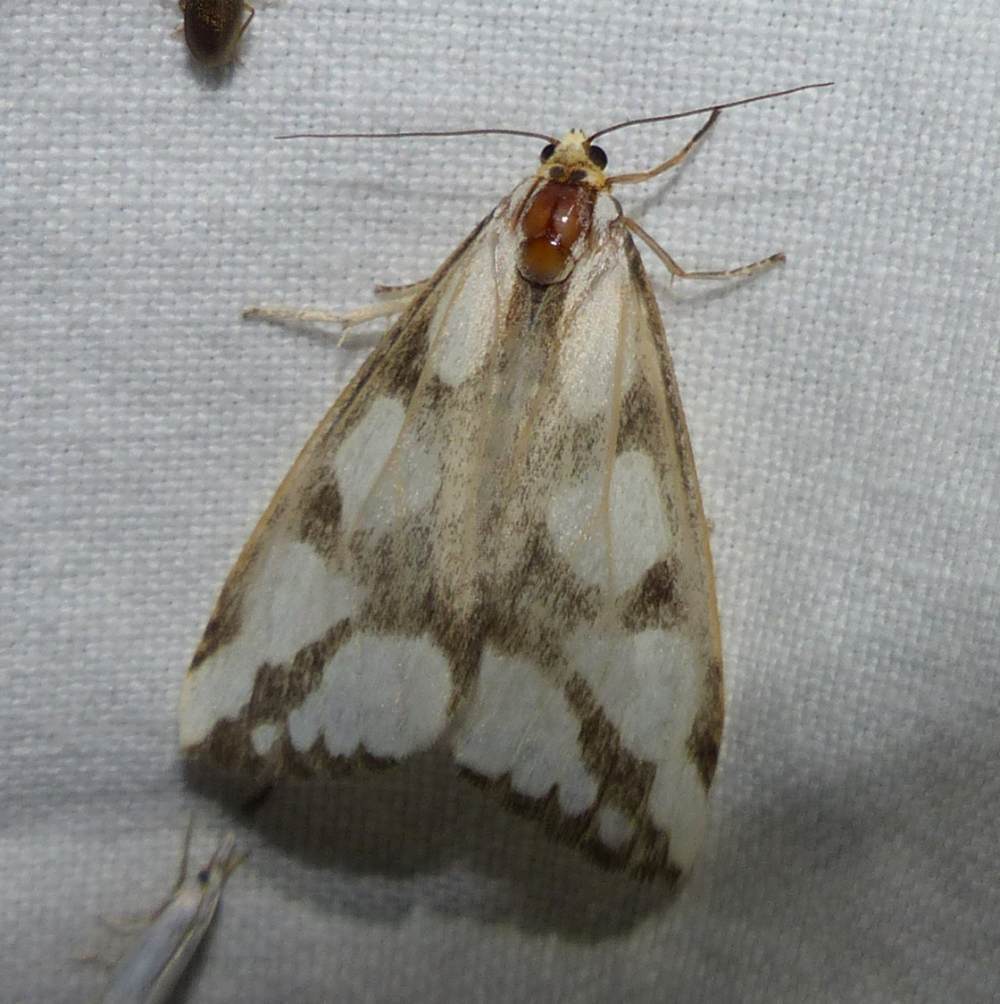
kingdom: Animalia
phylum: Arthropoda
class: Insecta
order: Lepidoptera
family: Erebidae
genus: Haploa
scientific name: Haploa lecontei
